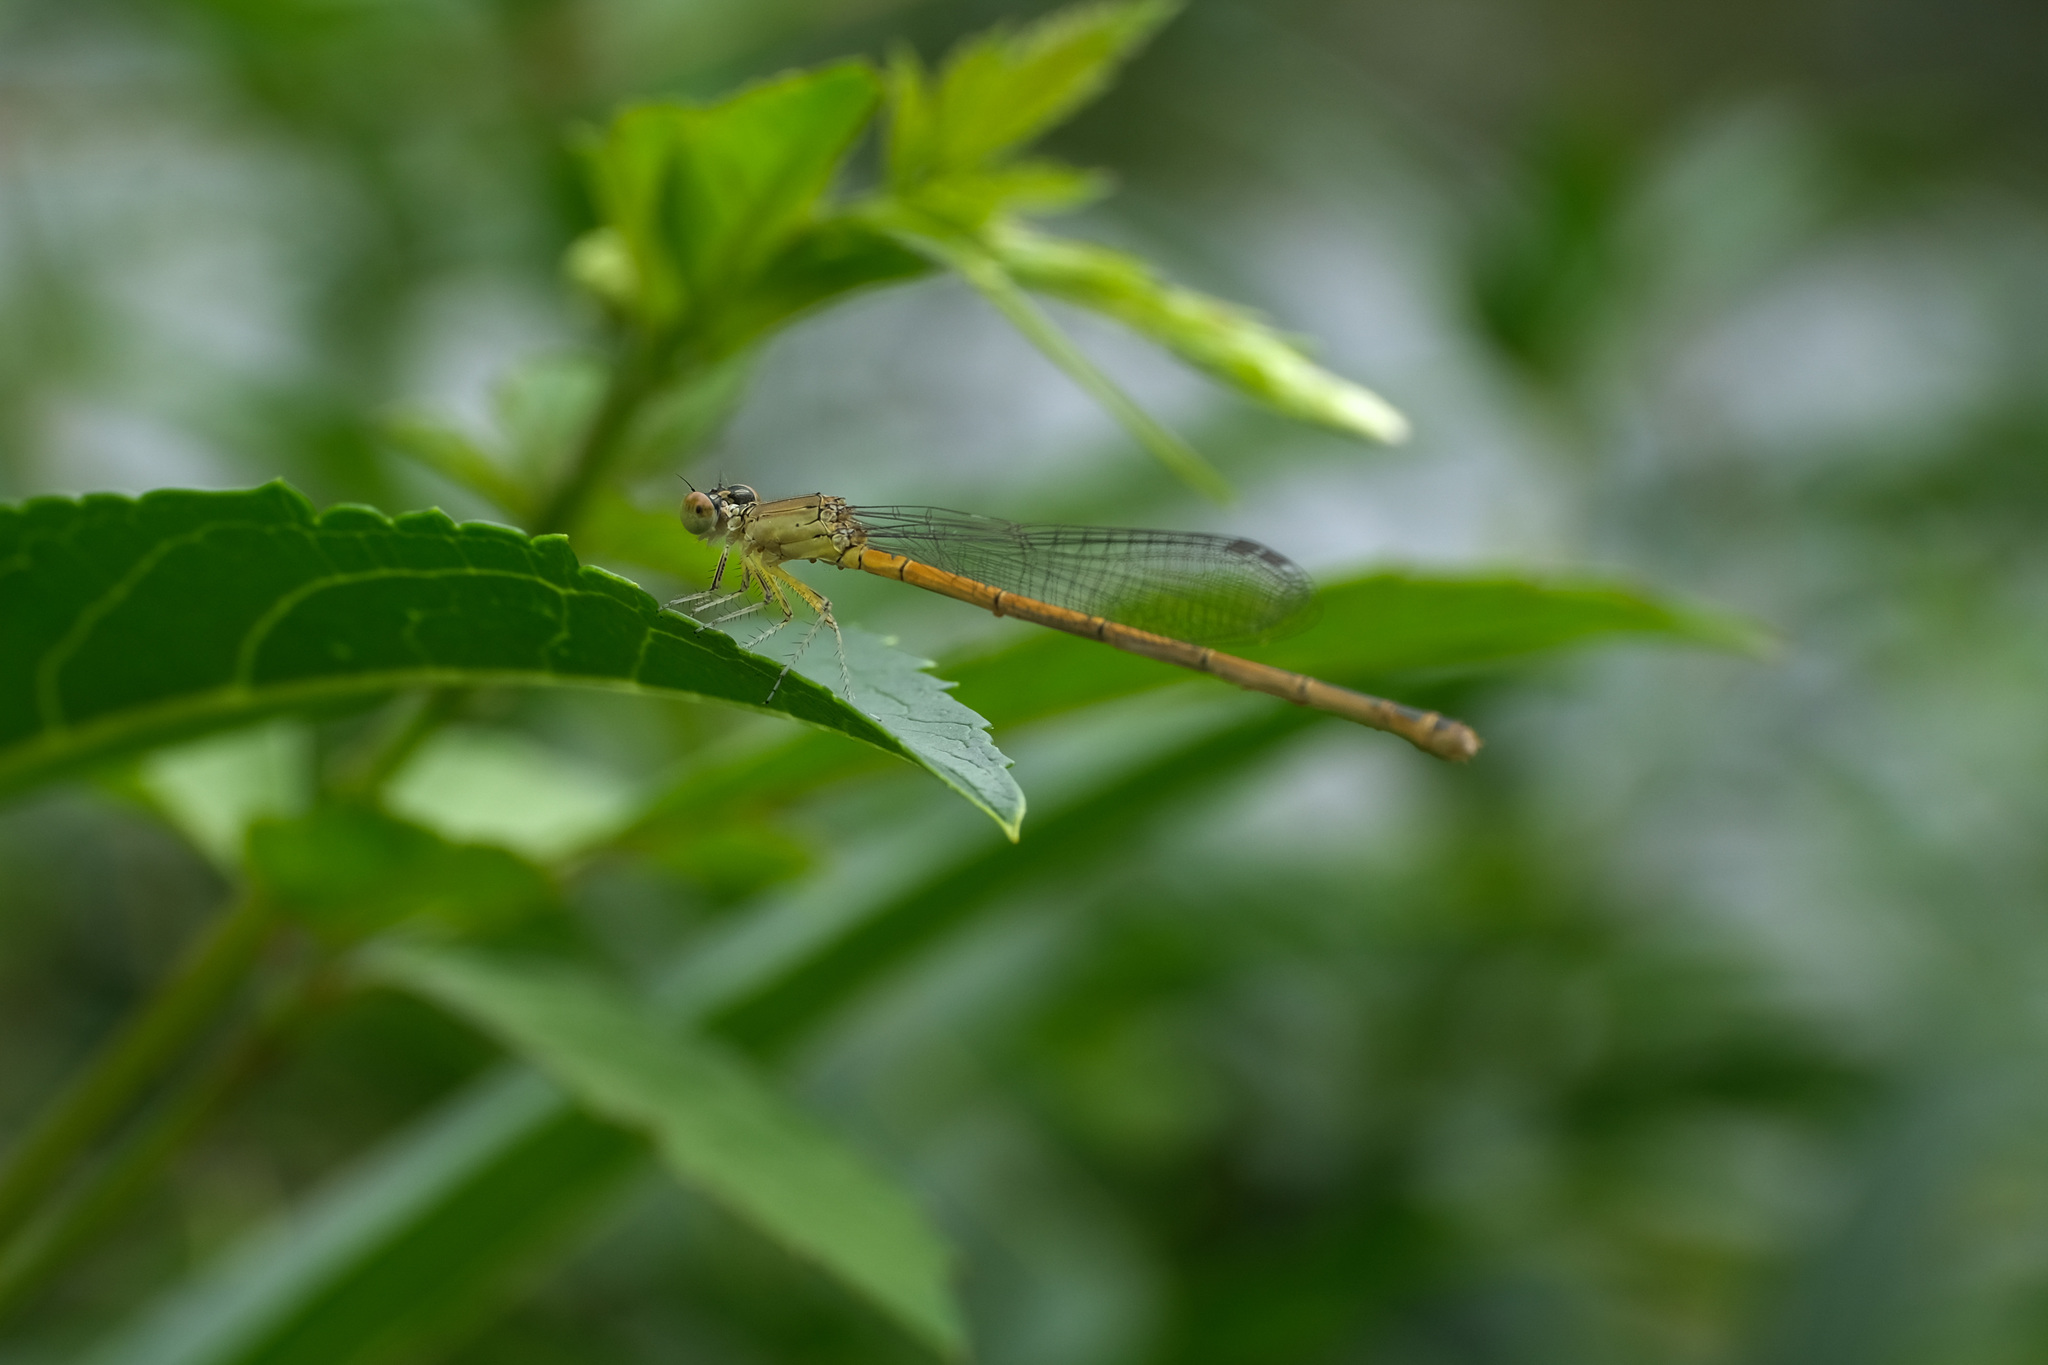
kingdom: Animalia
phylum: Arthropoda
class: Insecta
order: Odonata
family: Coenagrionidae
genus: Ceriagrion
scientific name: Ceriagrion auranticum
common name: Orange-tailed sprite
